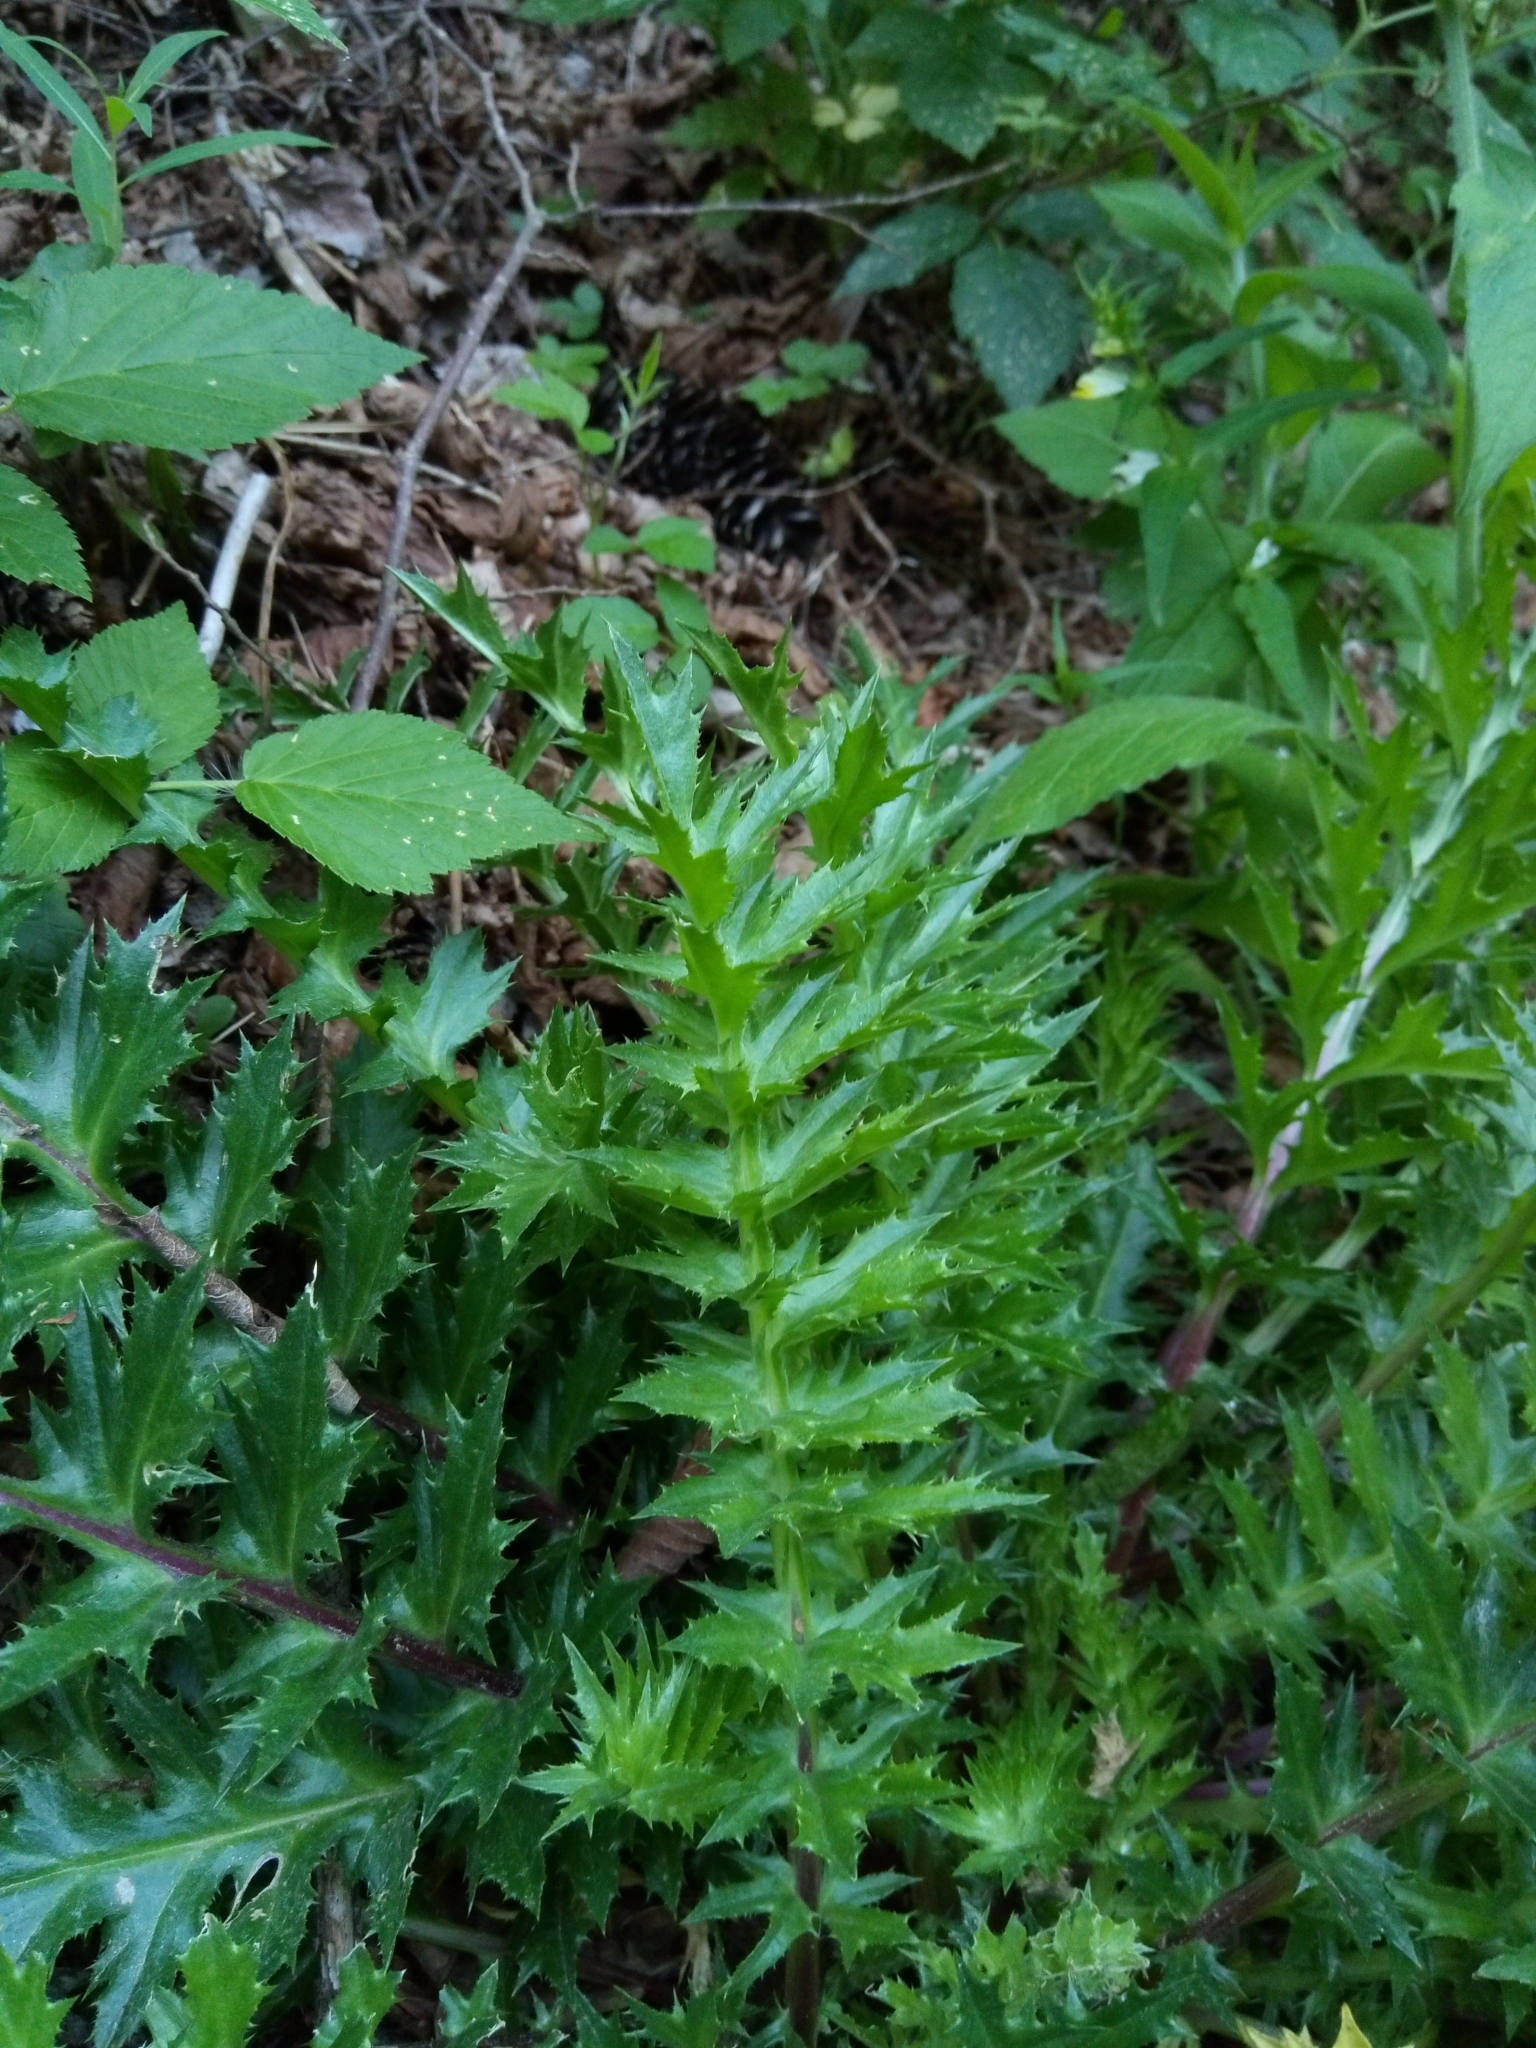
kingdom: Plantae
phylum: Tracheophyta
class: Magnoliopsida
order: Asterales
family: Asteraceae
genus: Carlina
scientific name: Carlina acaulis
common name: Stemless carline thistle
